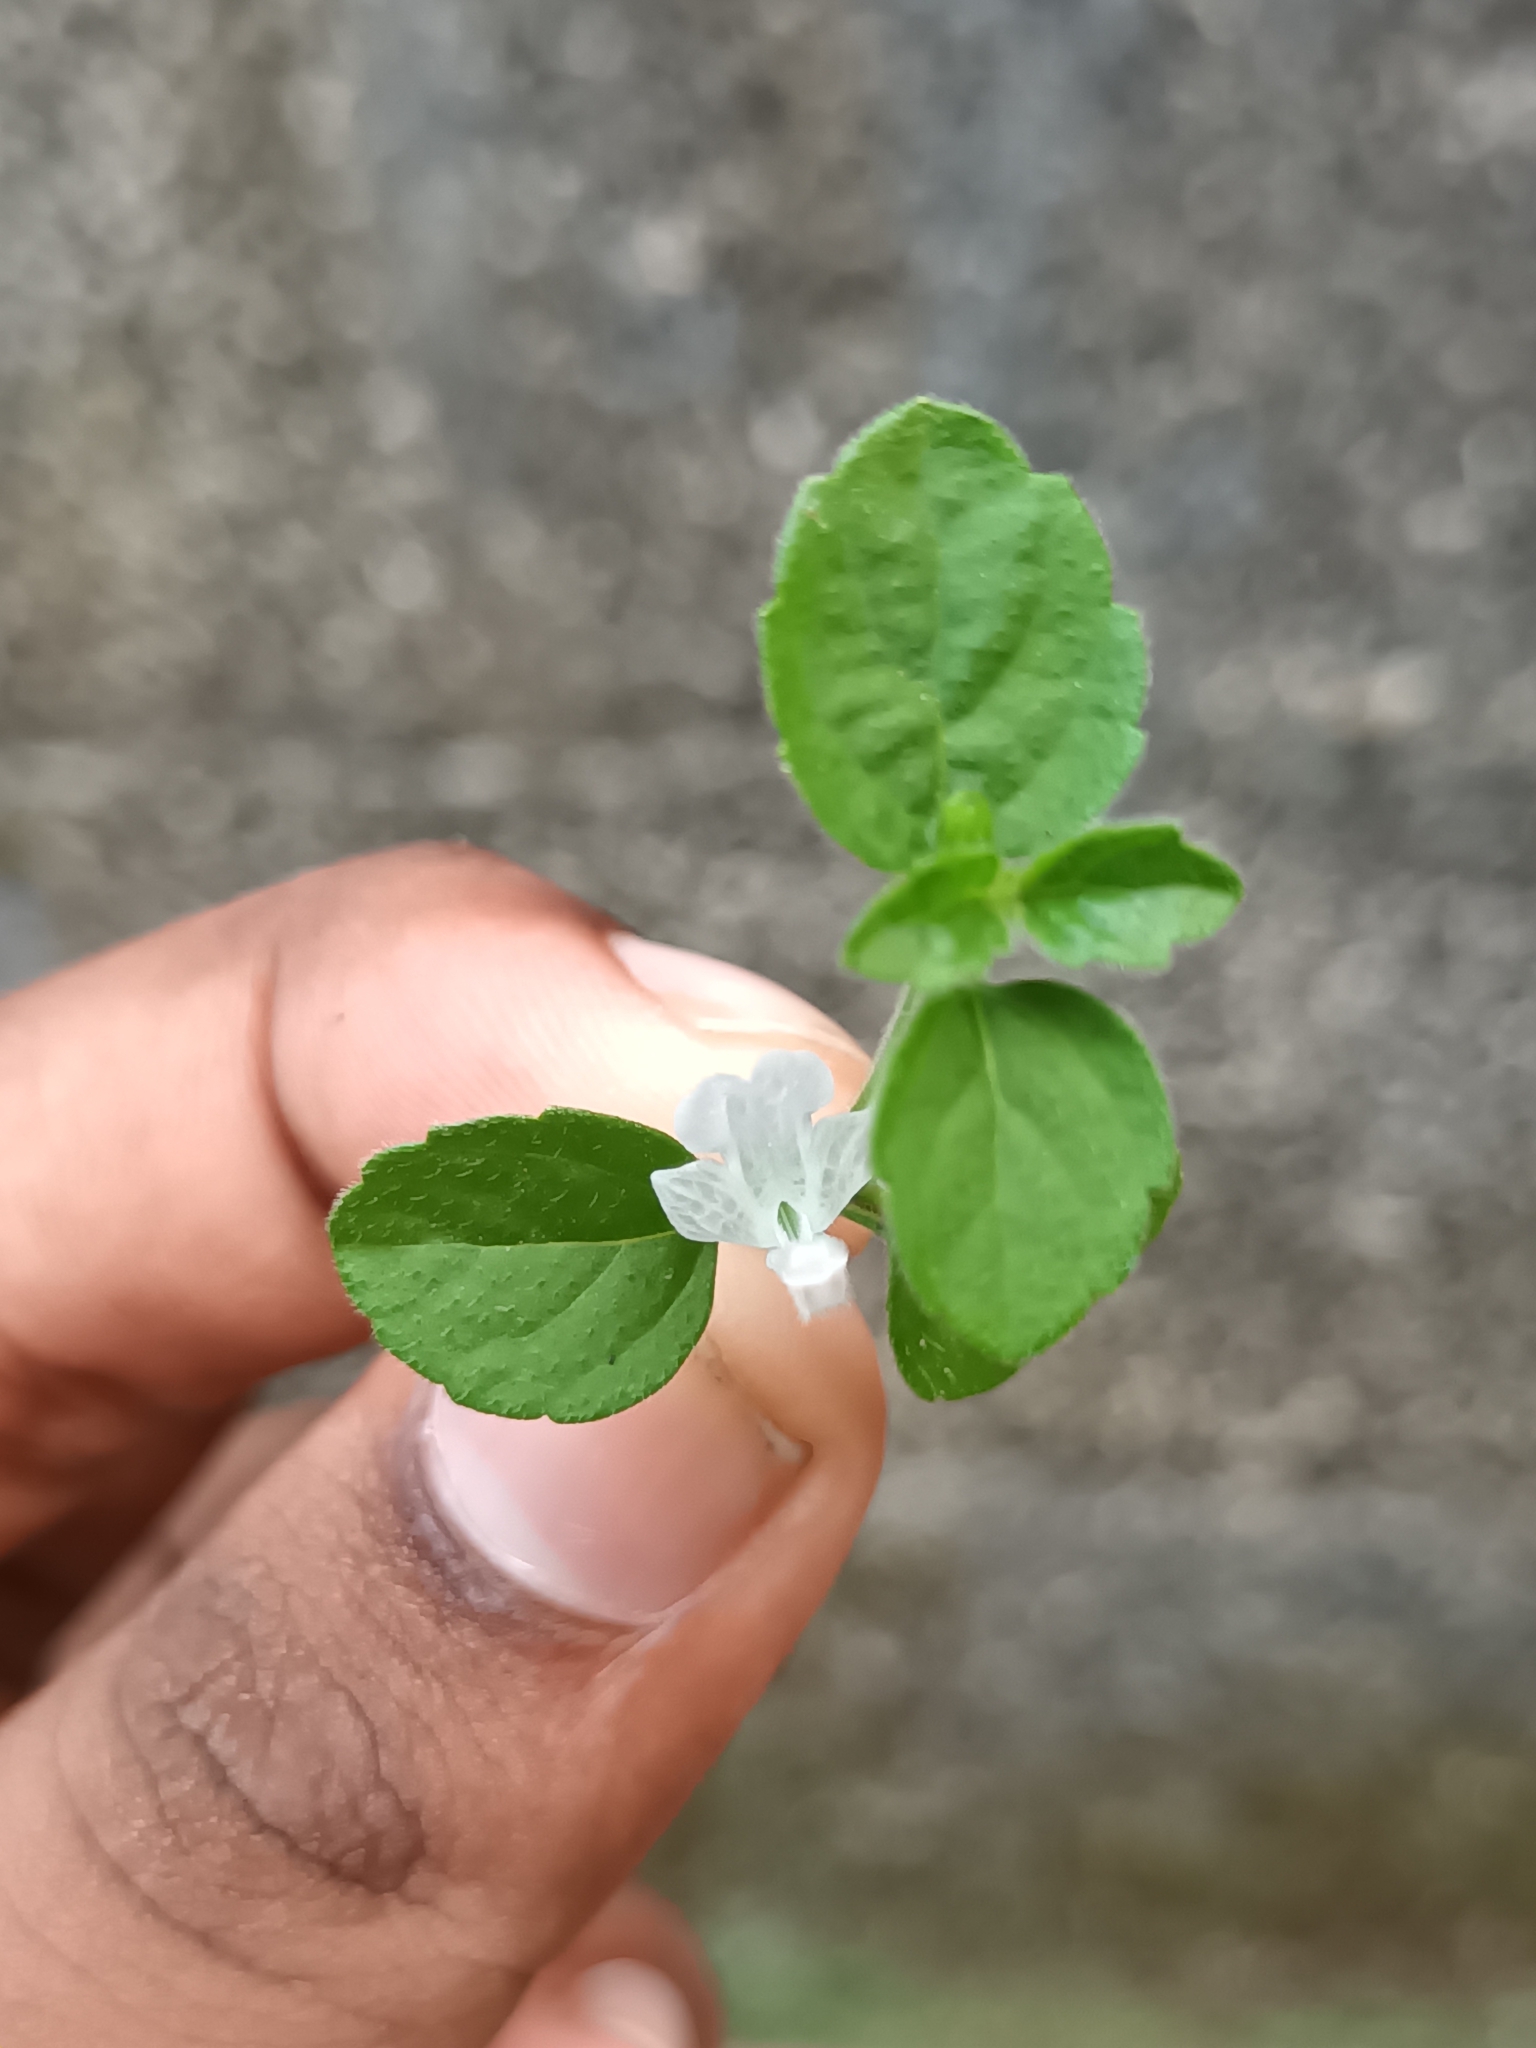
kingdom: Plantae
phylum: Tracheophyta
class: Magnoliopsida
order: Lamiales
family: Lamiaceae
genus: Leucas
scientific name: Leucas biflora
